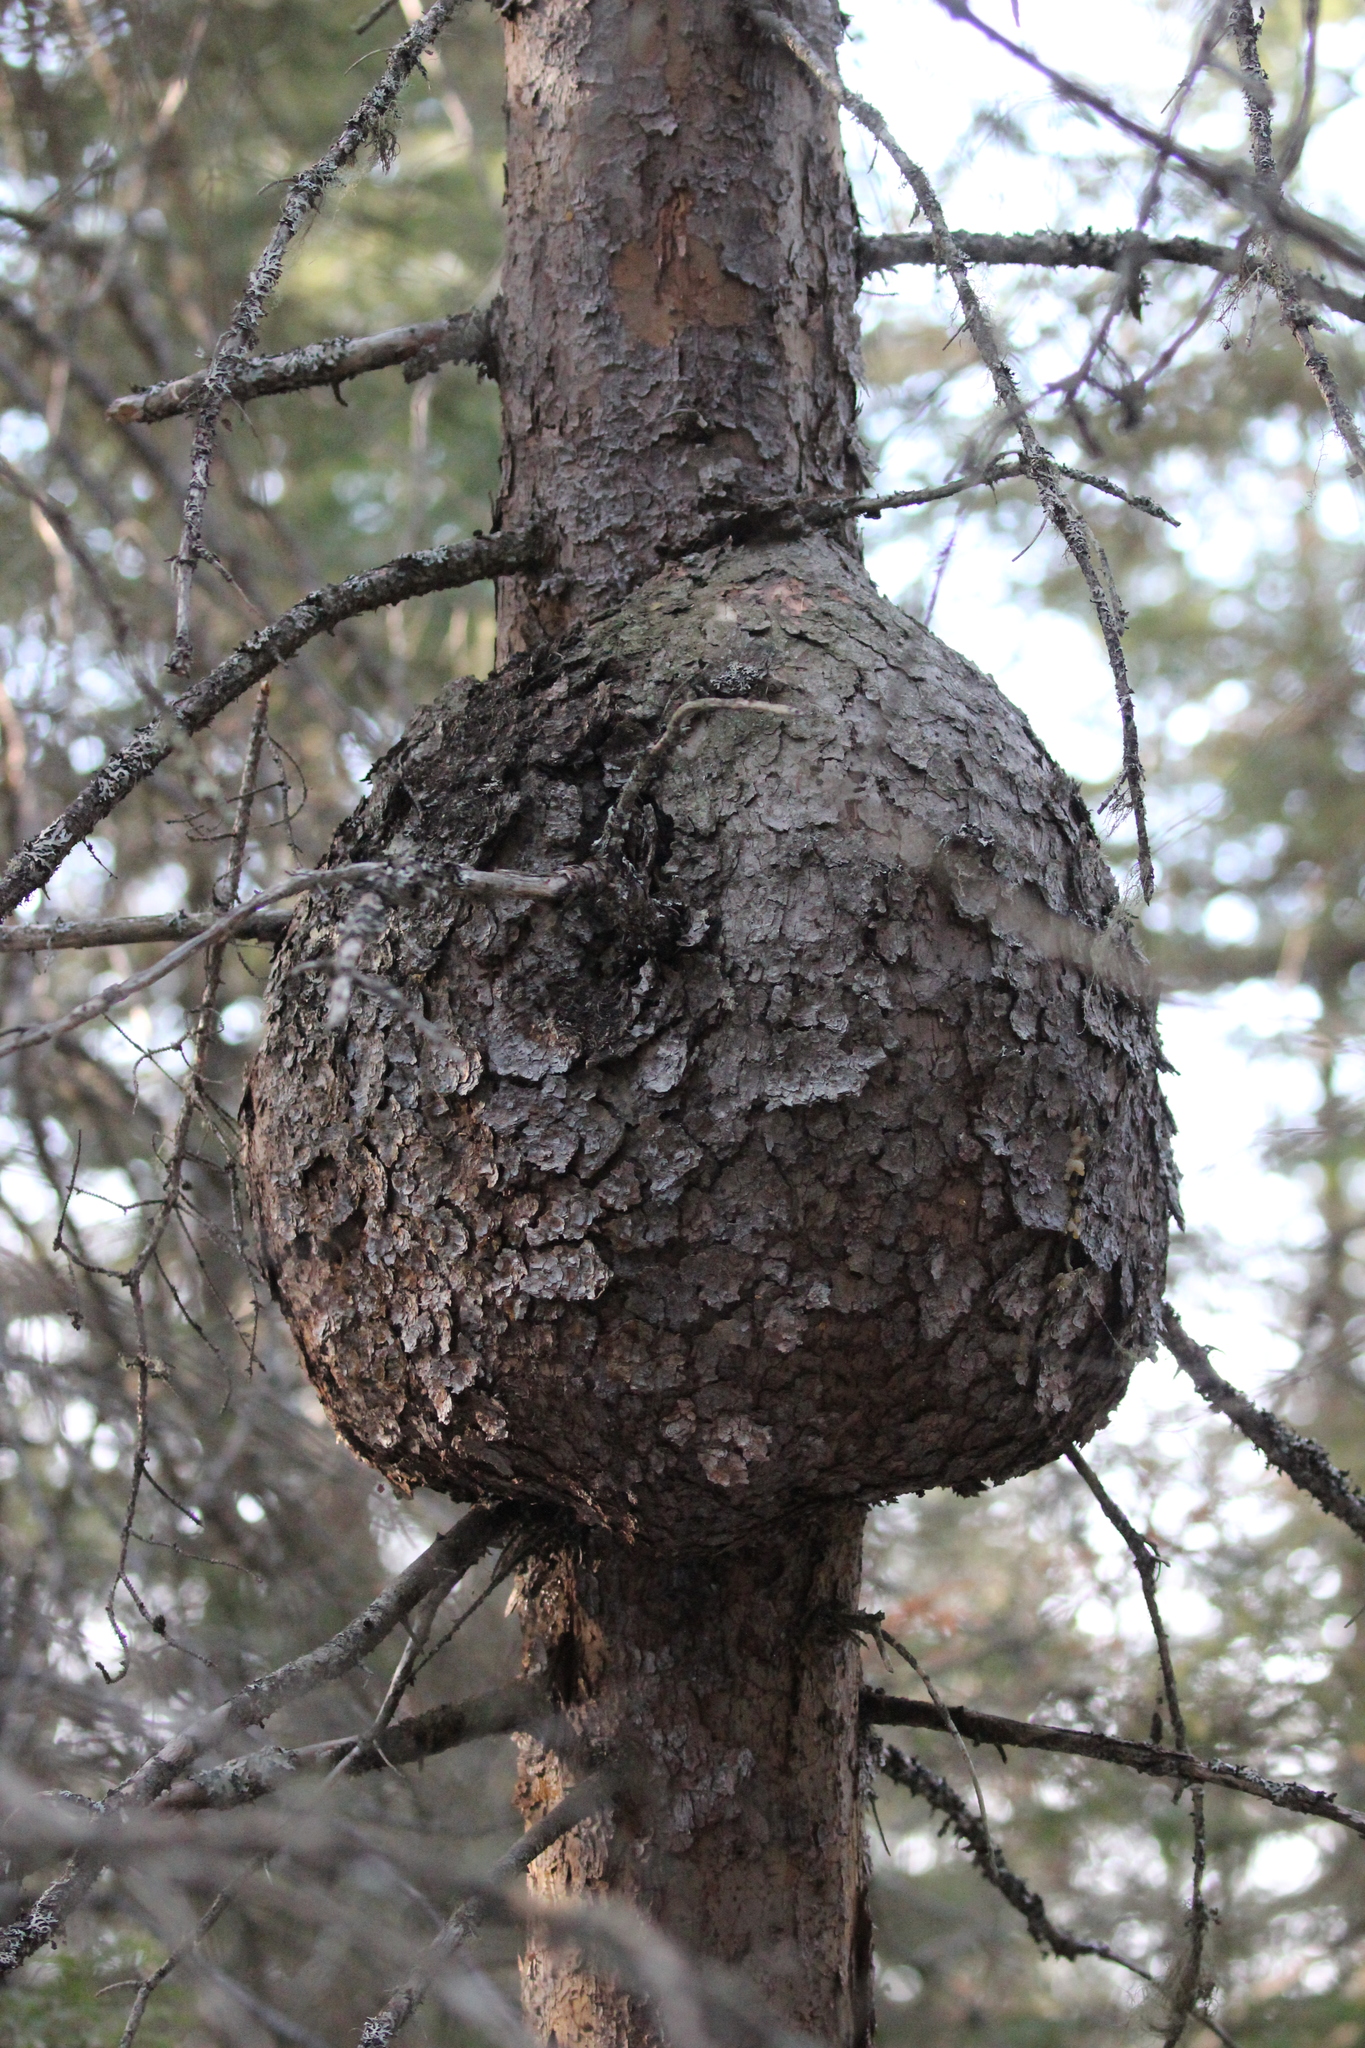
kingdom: Plantae
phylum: Tracheophyta
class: Pinopsida
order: Pinales
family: Pinaceae
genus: Picea
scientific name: Picea mariana
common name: Black spruce
